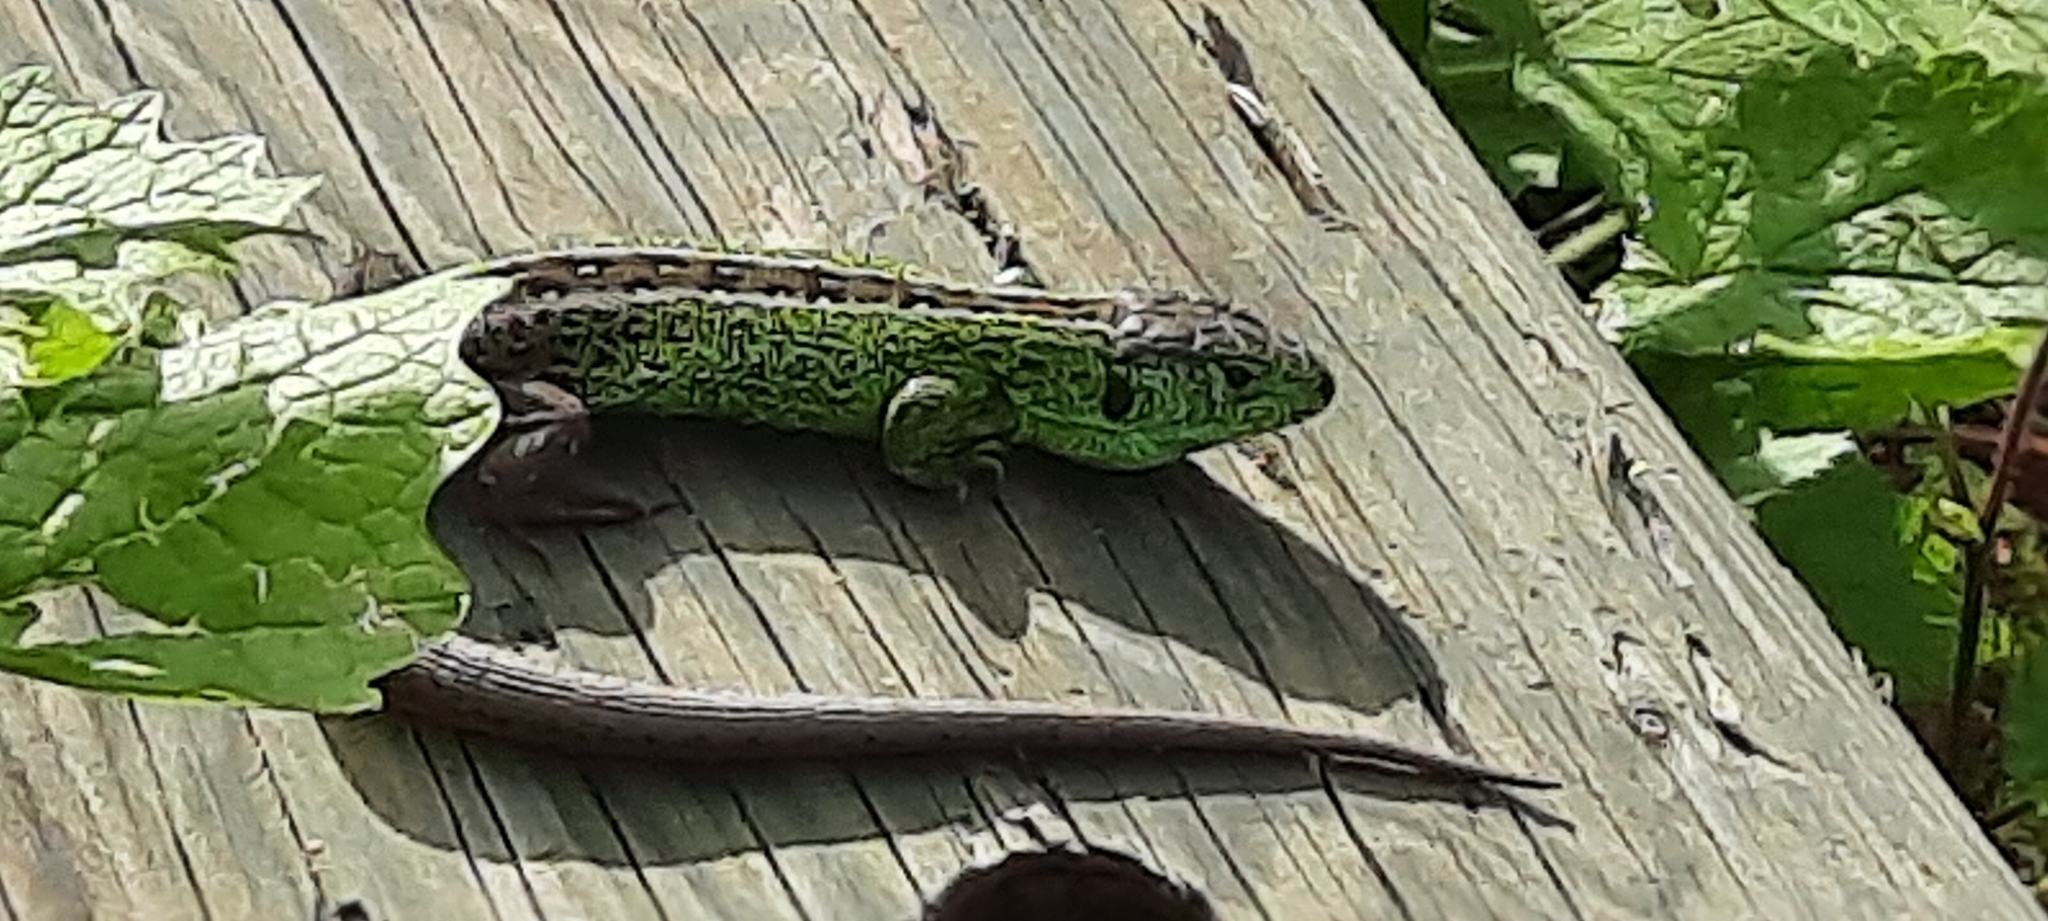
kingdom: Animalia
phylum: Chordata
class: Squamata
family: Lacertidae
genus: Lacerta
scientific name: Lacerta agilis
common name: Sand lizard
